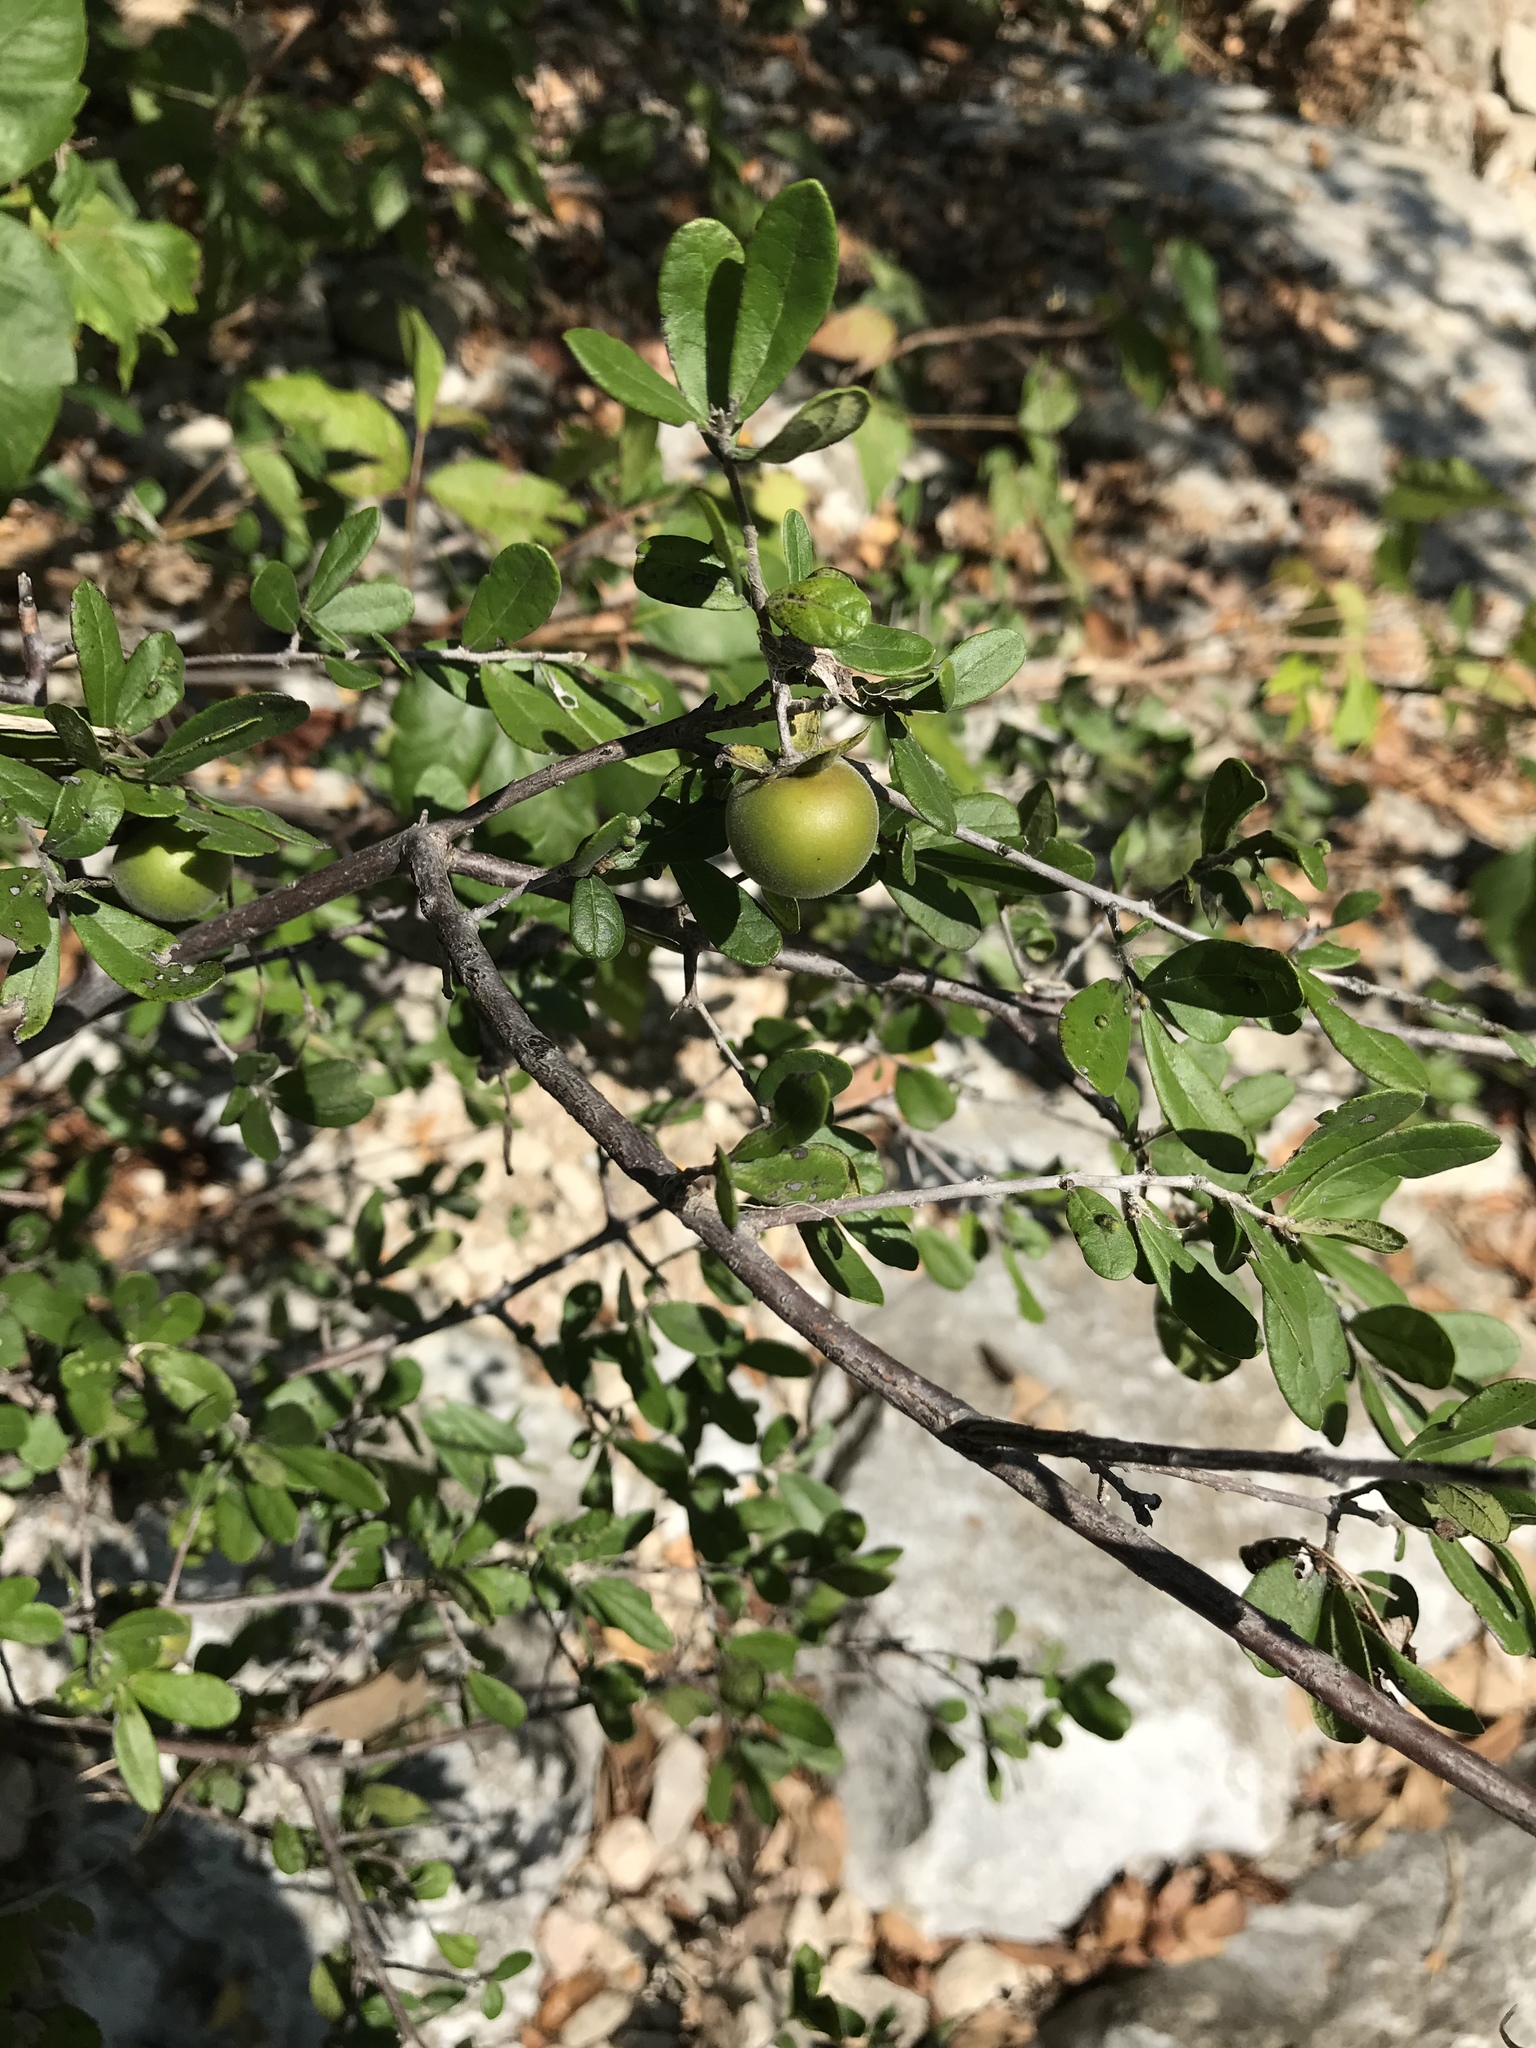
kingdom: Plantae
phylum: Tracheophyta
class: Magnoliopsida
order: Ericales
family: Ebenaceae
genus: Diospyros
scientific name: Diospyros texana
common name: Texas persimmon
